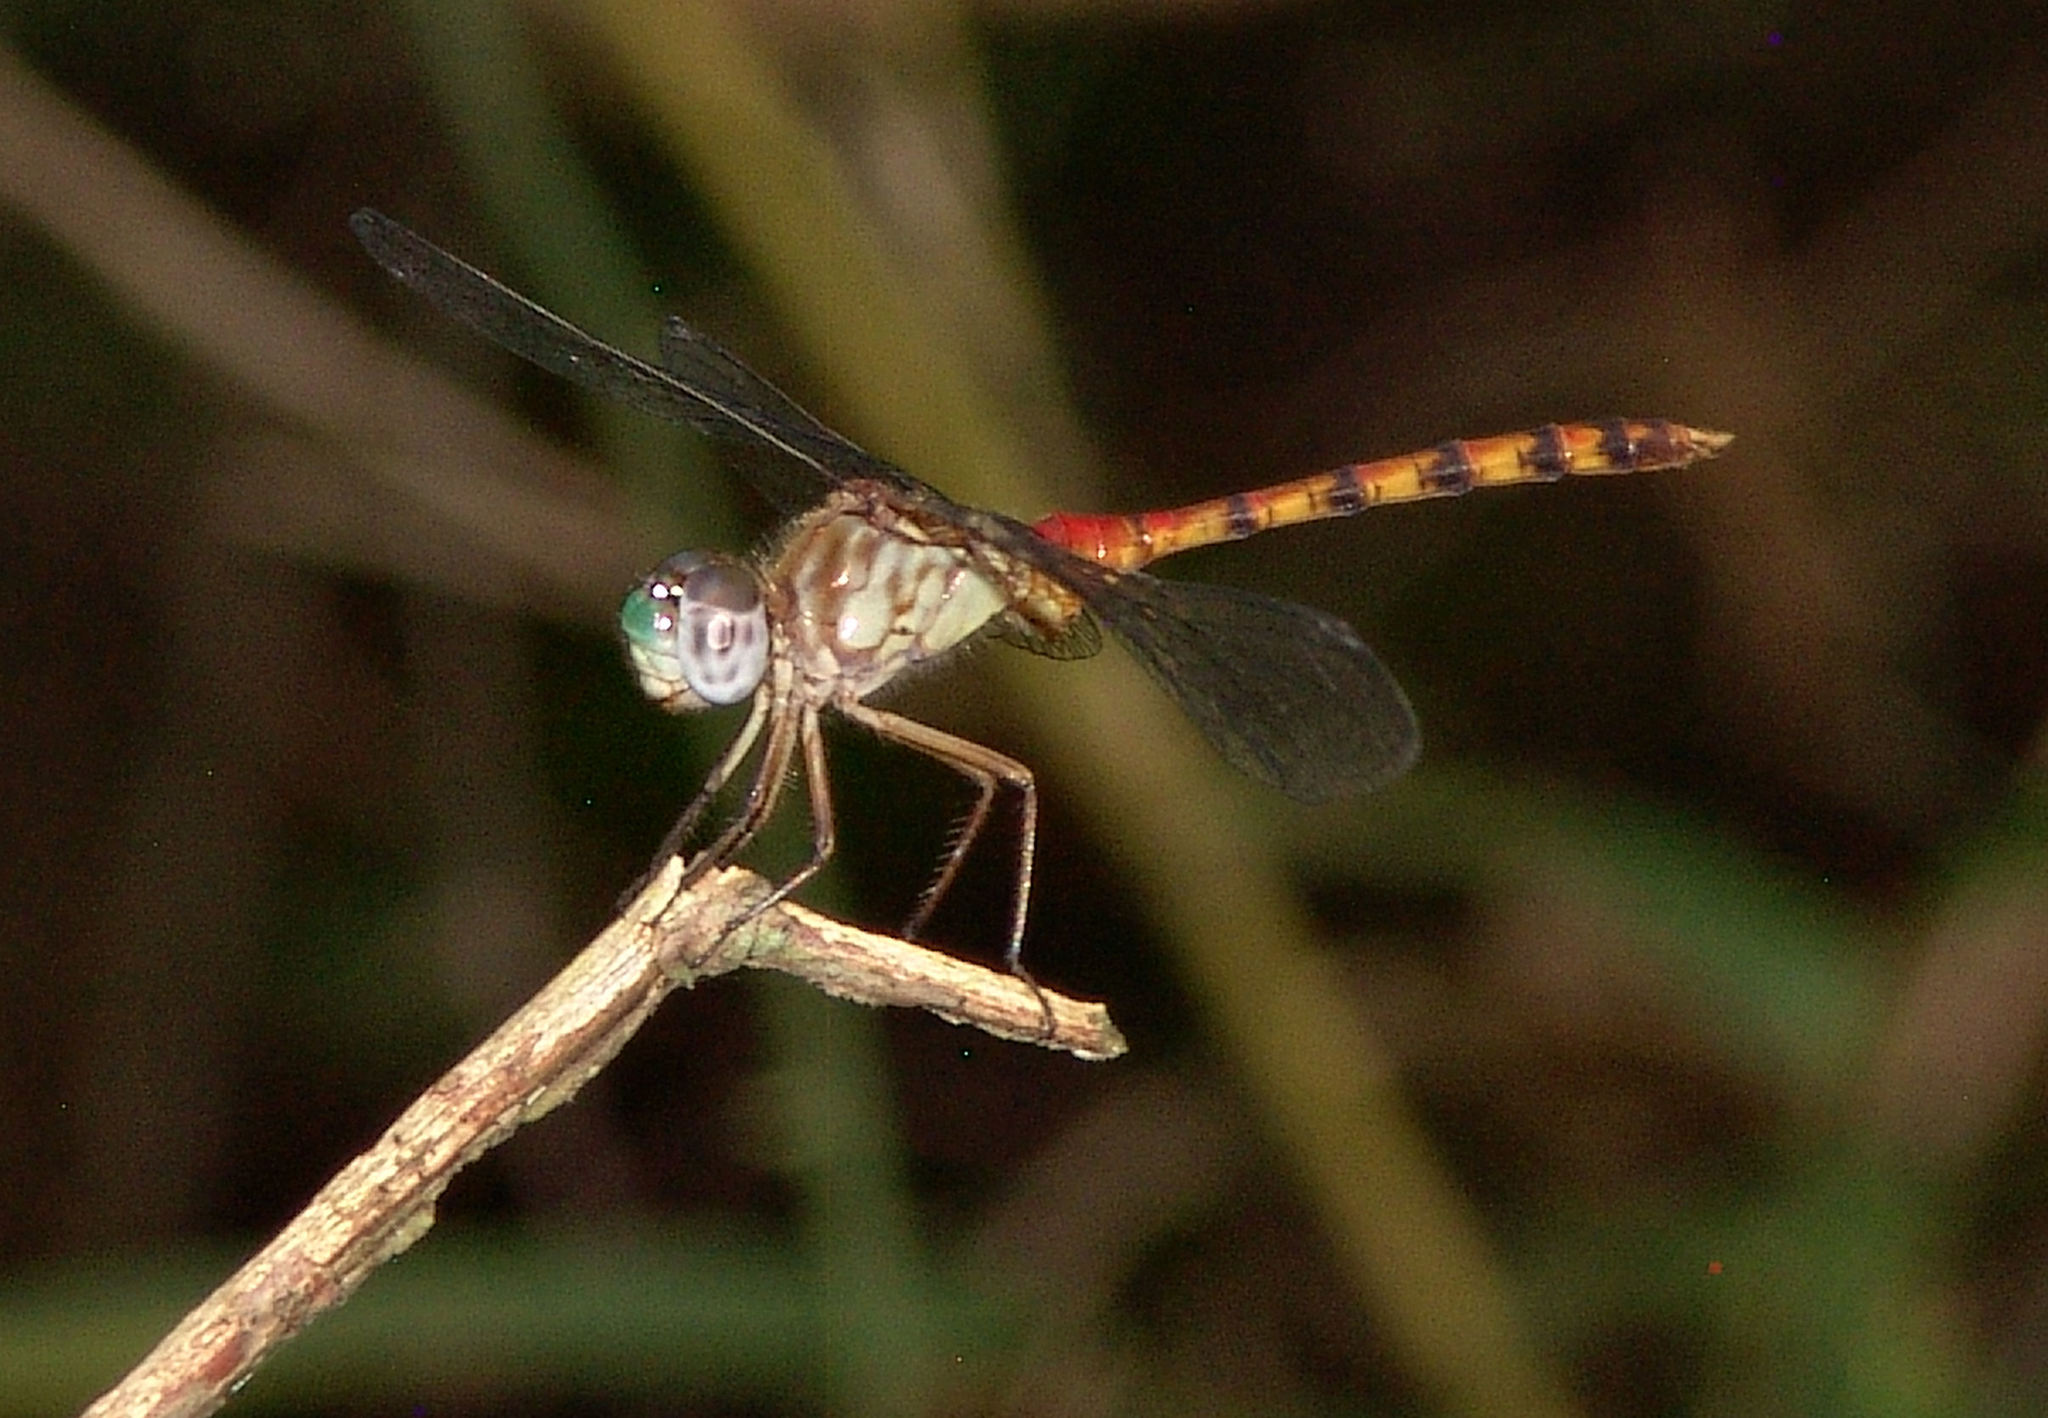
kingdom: Animalia
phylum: Arthropoda
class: Insecta
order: Odonata
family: Libellulidae
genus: Sympetrum
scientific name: Sympetrum ambiguum
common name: Blue-faced meadowhawk
